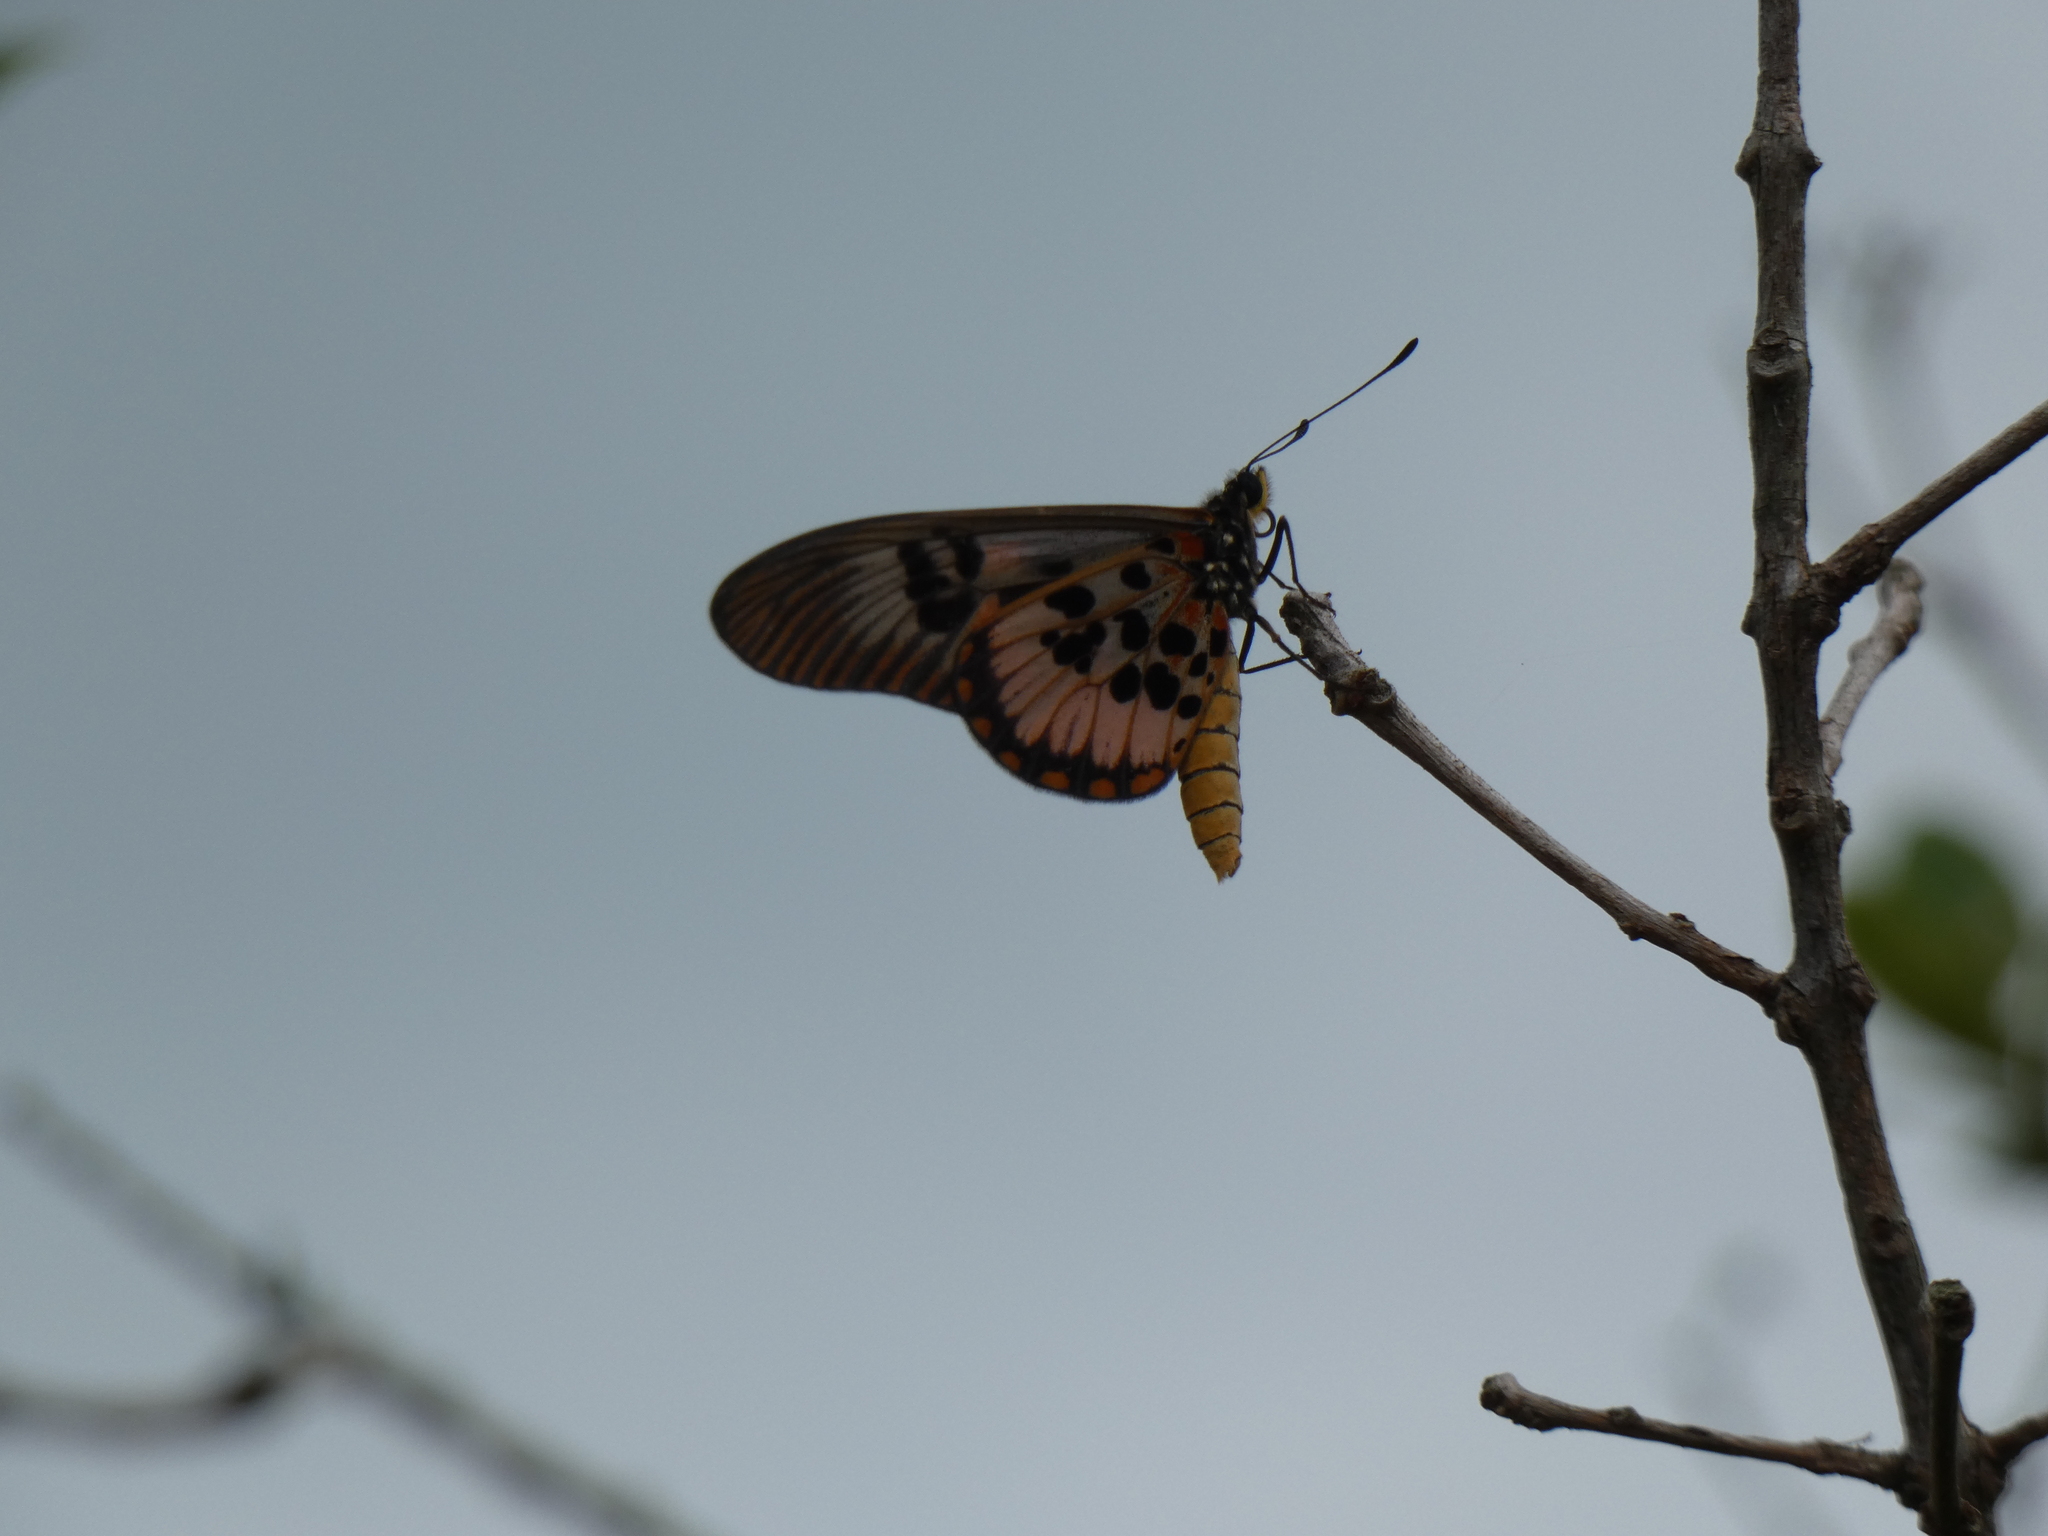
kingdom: Animalia
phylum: Arthropoda
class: Insecta
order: Lepidoptera
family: Nymphalidae
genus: Acraea
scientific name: Acraea
